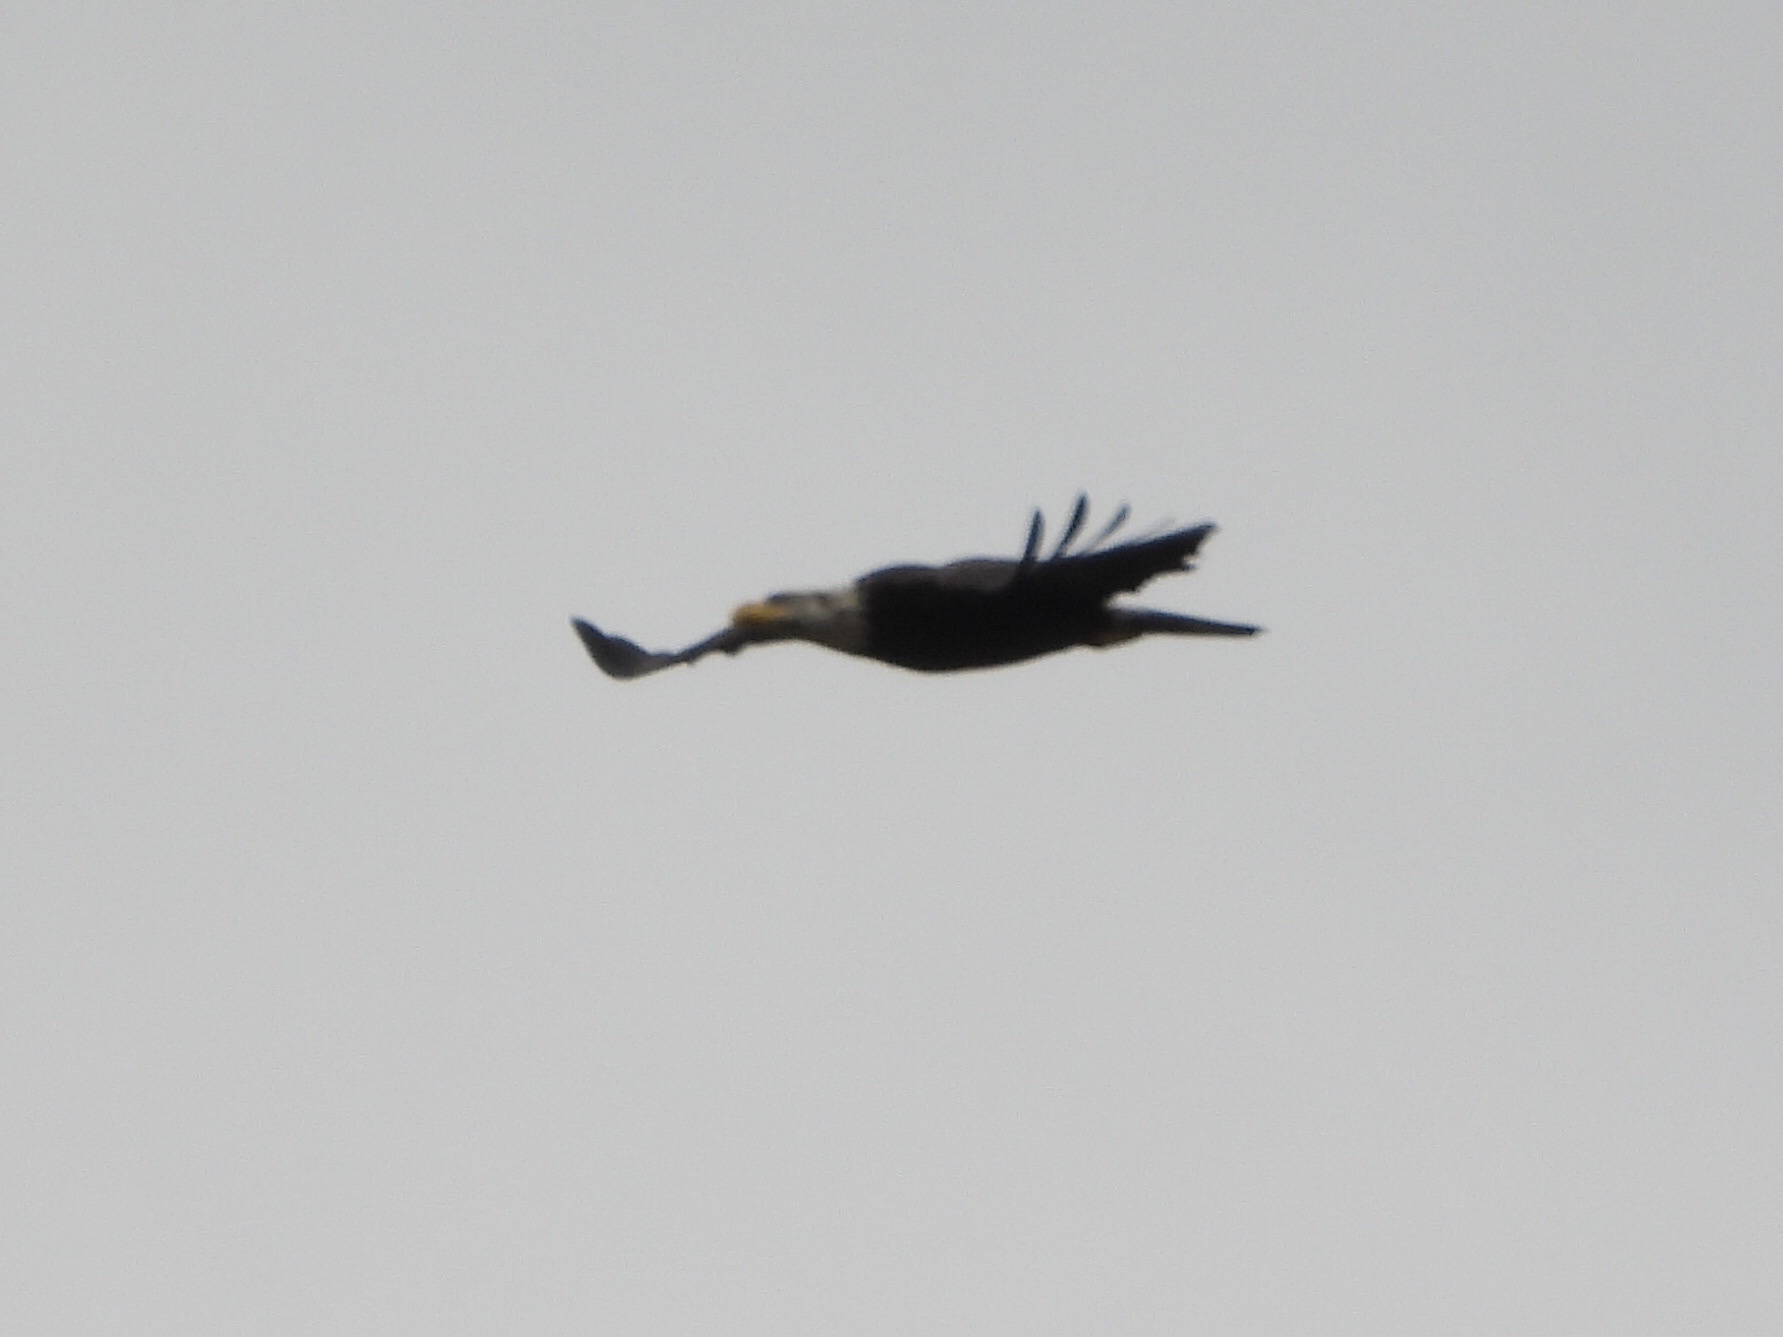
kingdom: Animalia
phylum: Chordata
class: Aves
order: Accipitriformes
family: Accipitridae
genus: Haliaeetus
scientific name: Haliaeetus leucocephalus
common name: Bald eagle
